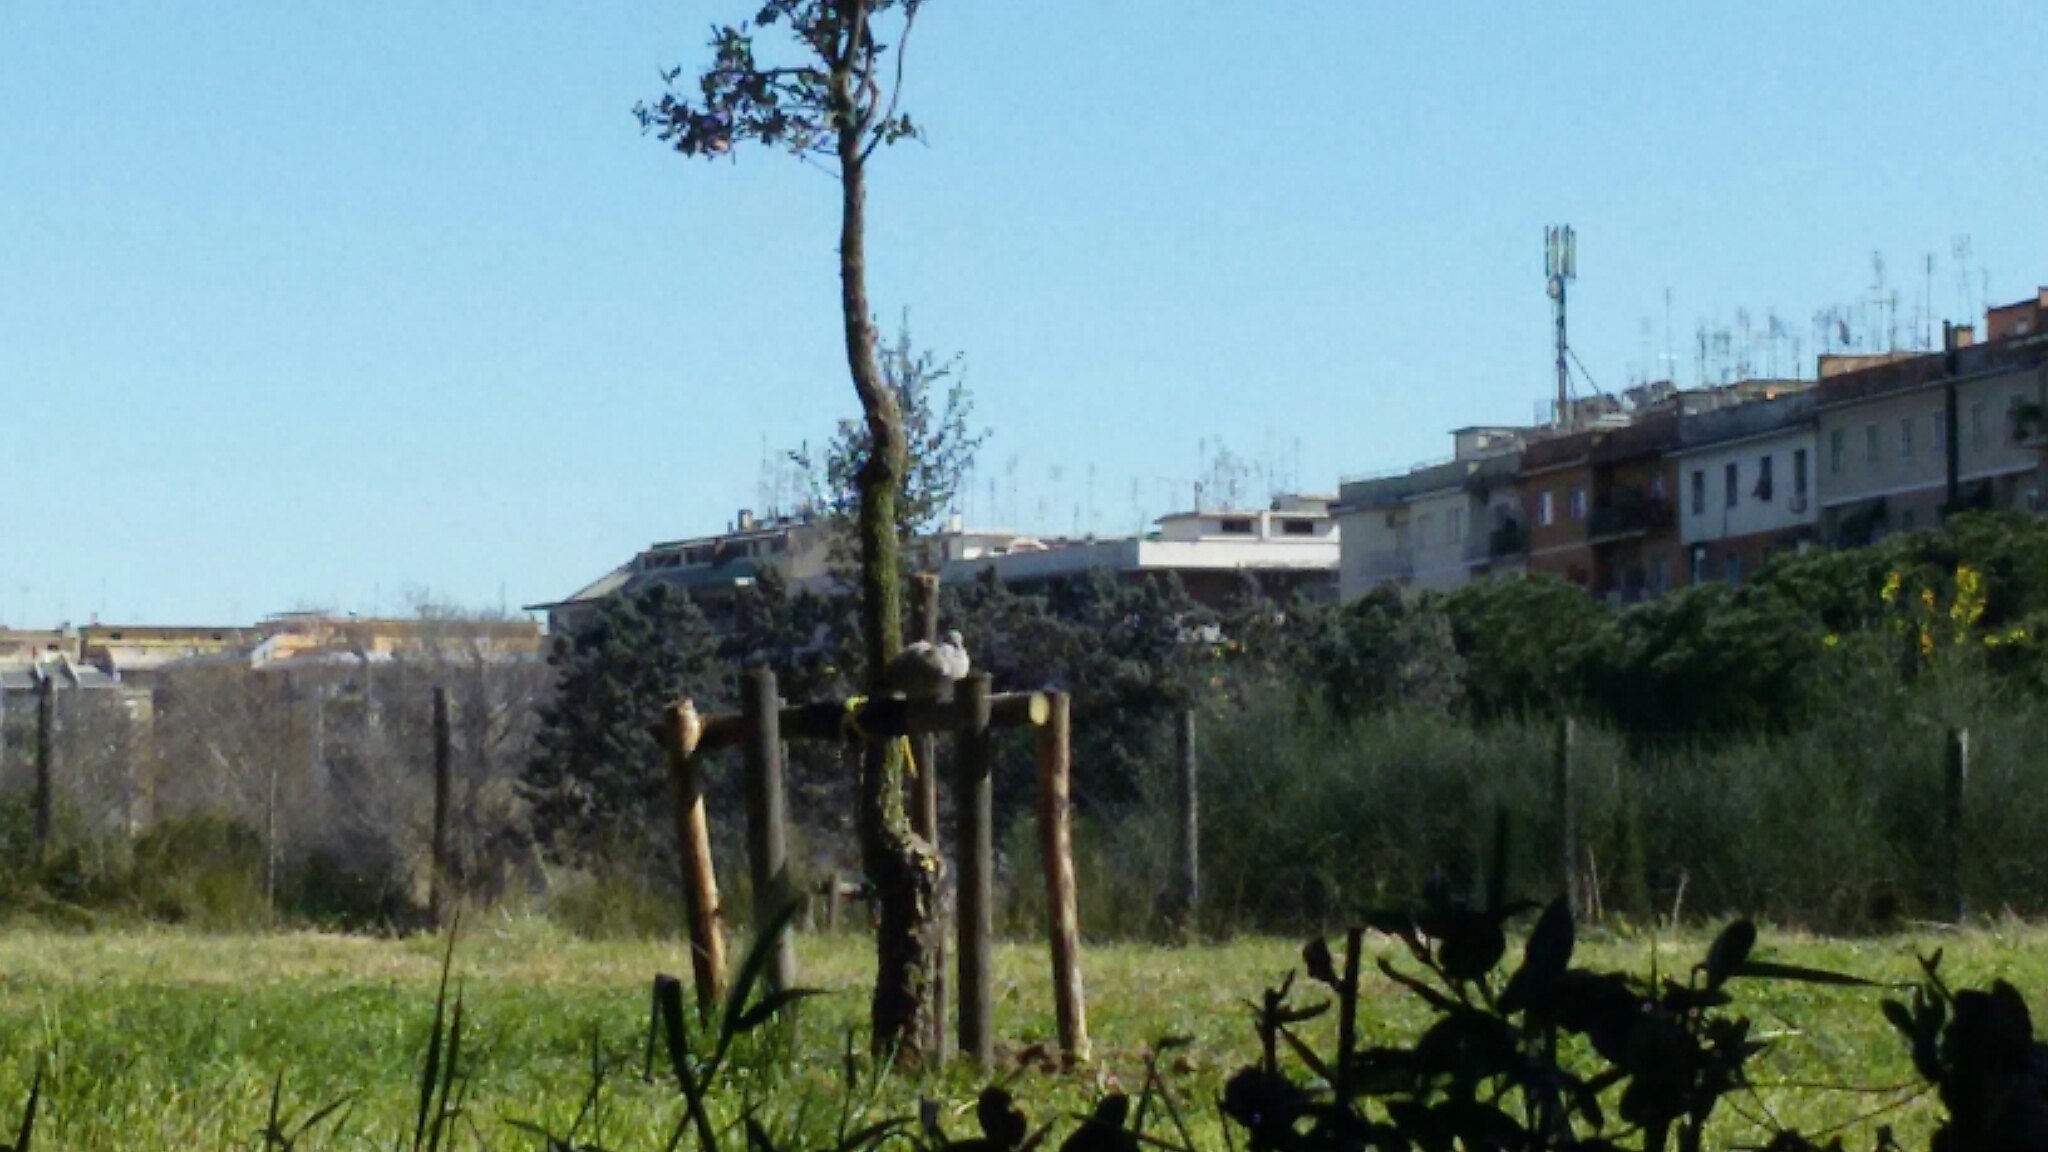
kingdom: Animalia
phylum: Chordata
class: Aves
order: Columbiformes
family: Columbidae
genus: Streptopelia
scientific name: Streptopelia decaocto
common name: Eurasian collared dove
